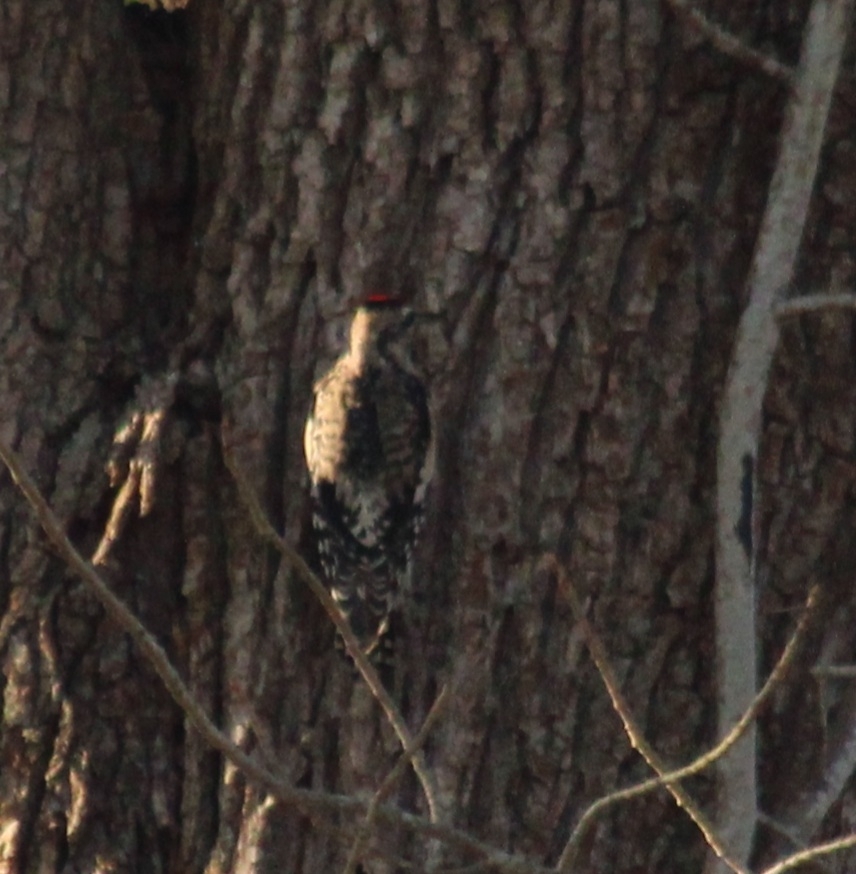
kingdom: Animalia
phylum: Chordata
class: Aves
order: Piciformes
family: Picidae
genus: Sphyrapicus
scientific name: Sphyrapicus varius
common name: Yellow-bellied sapsucker
